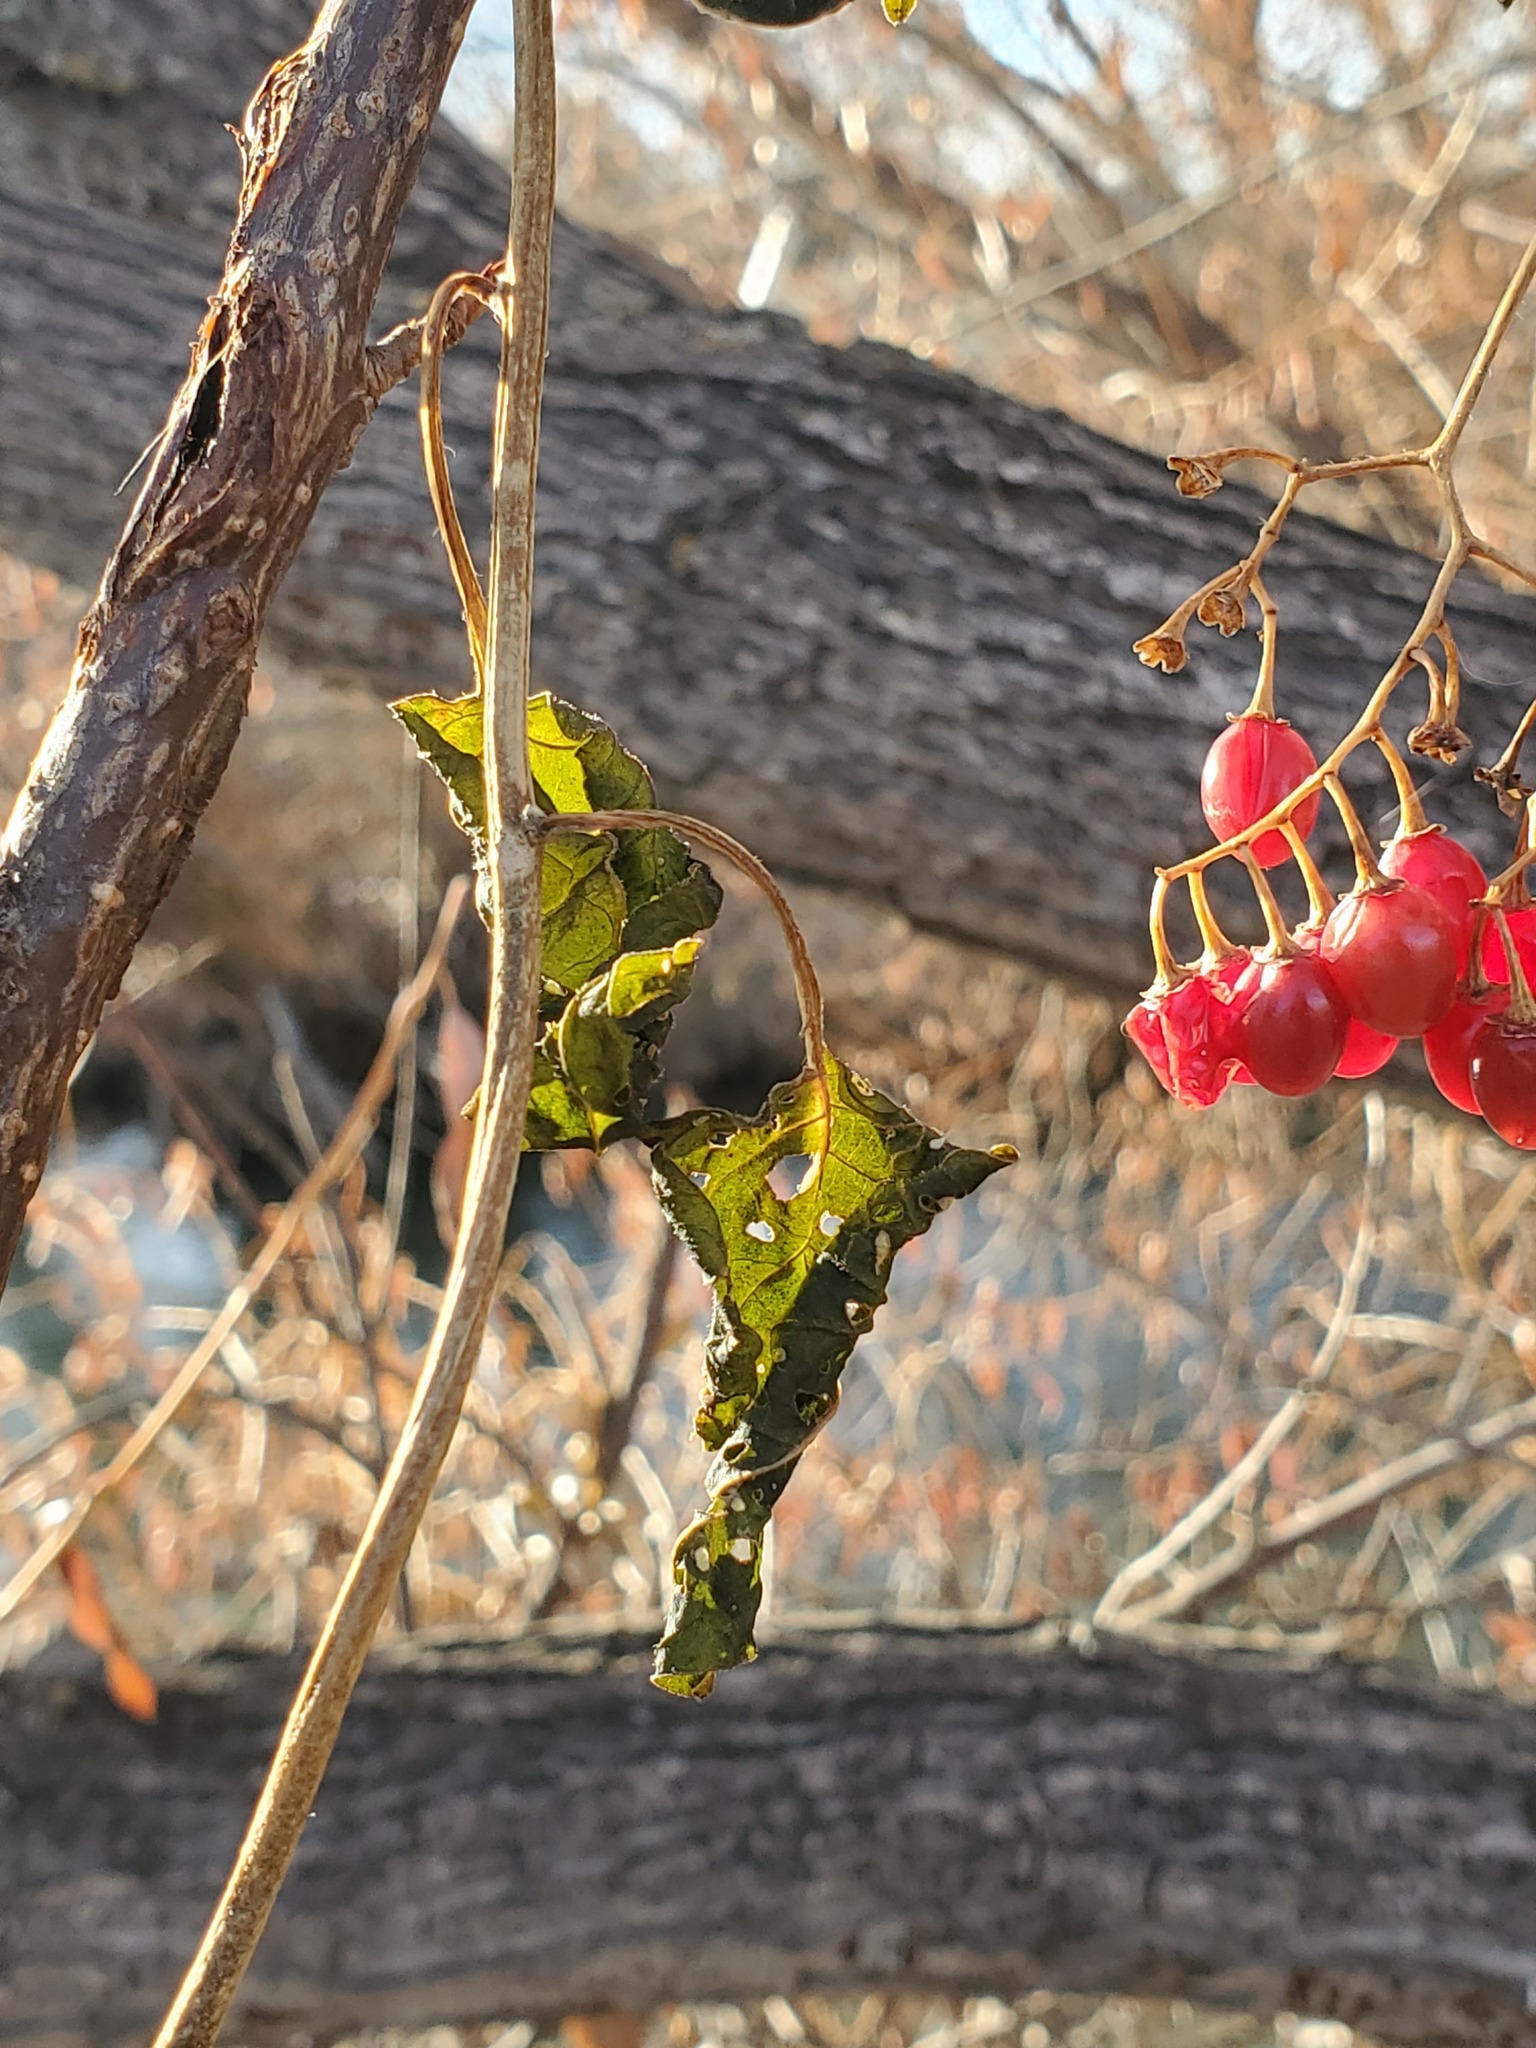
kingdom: Plantae
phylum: Tracheophyta
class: Magnoliopsida
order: Solanales
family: Solanaceae
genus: Solanum
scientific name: Solanum dulcamara
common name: Climbing nightshade
